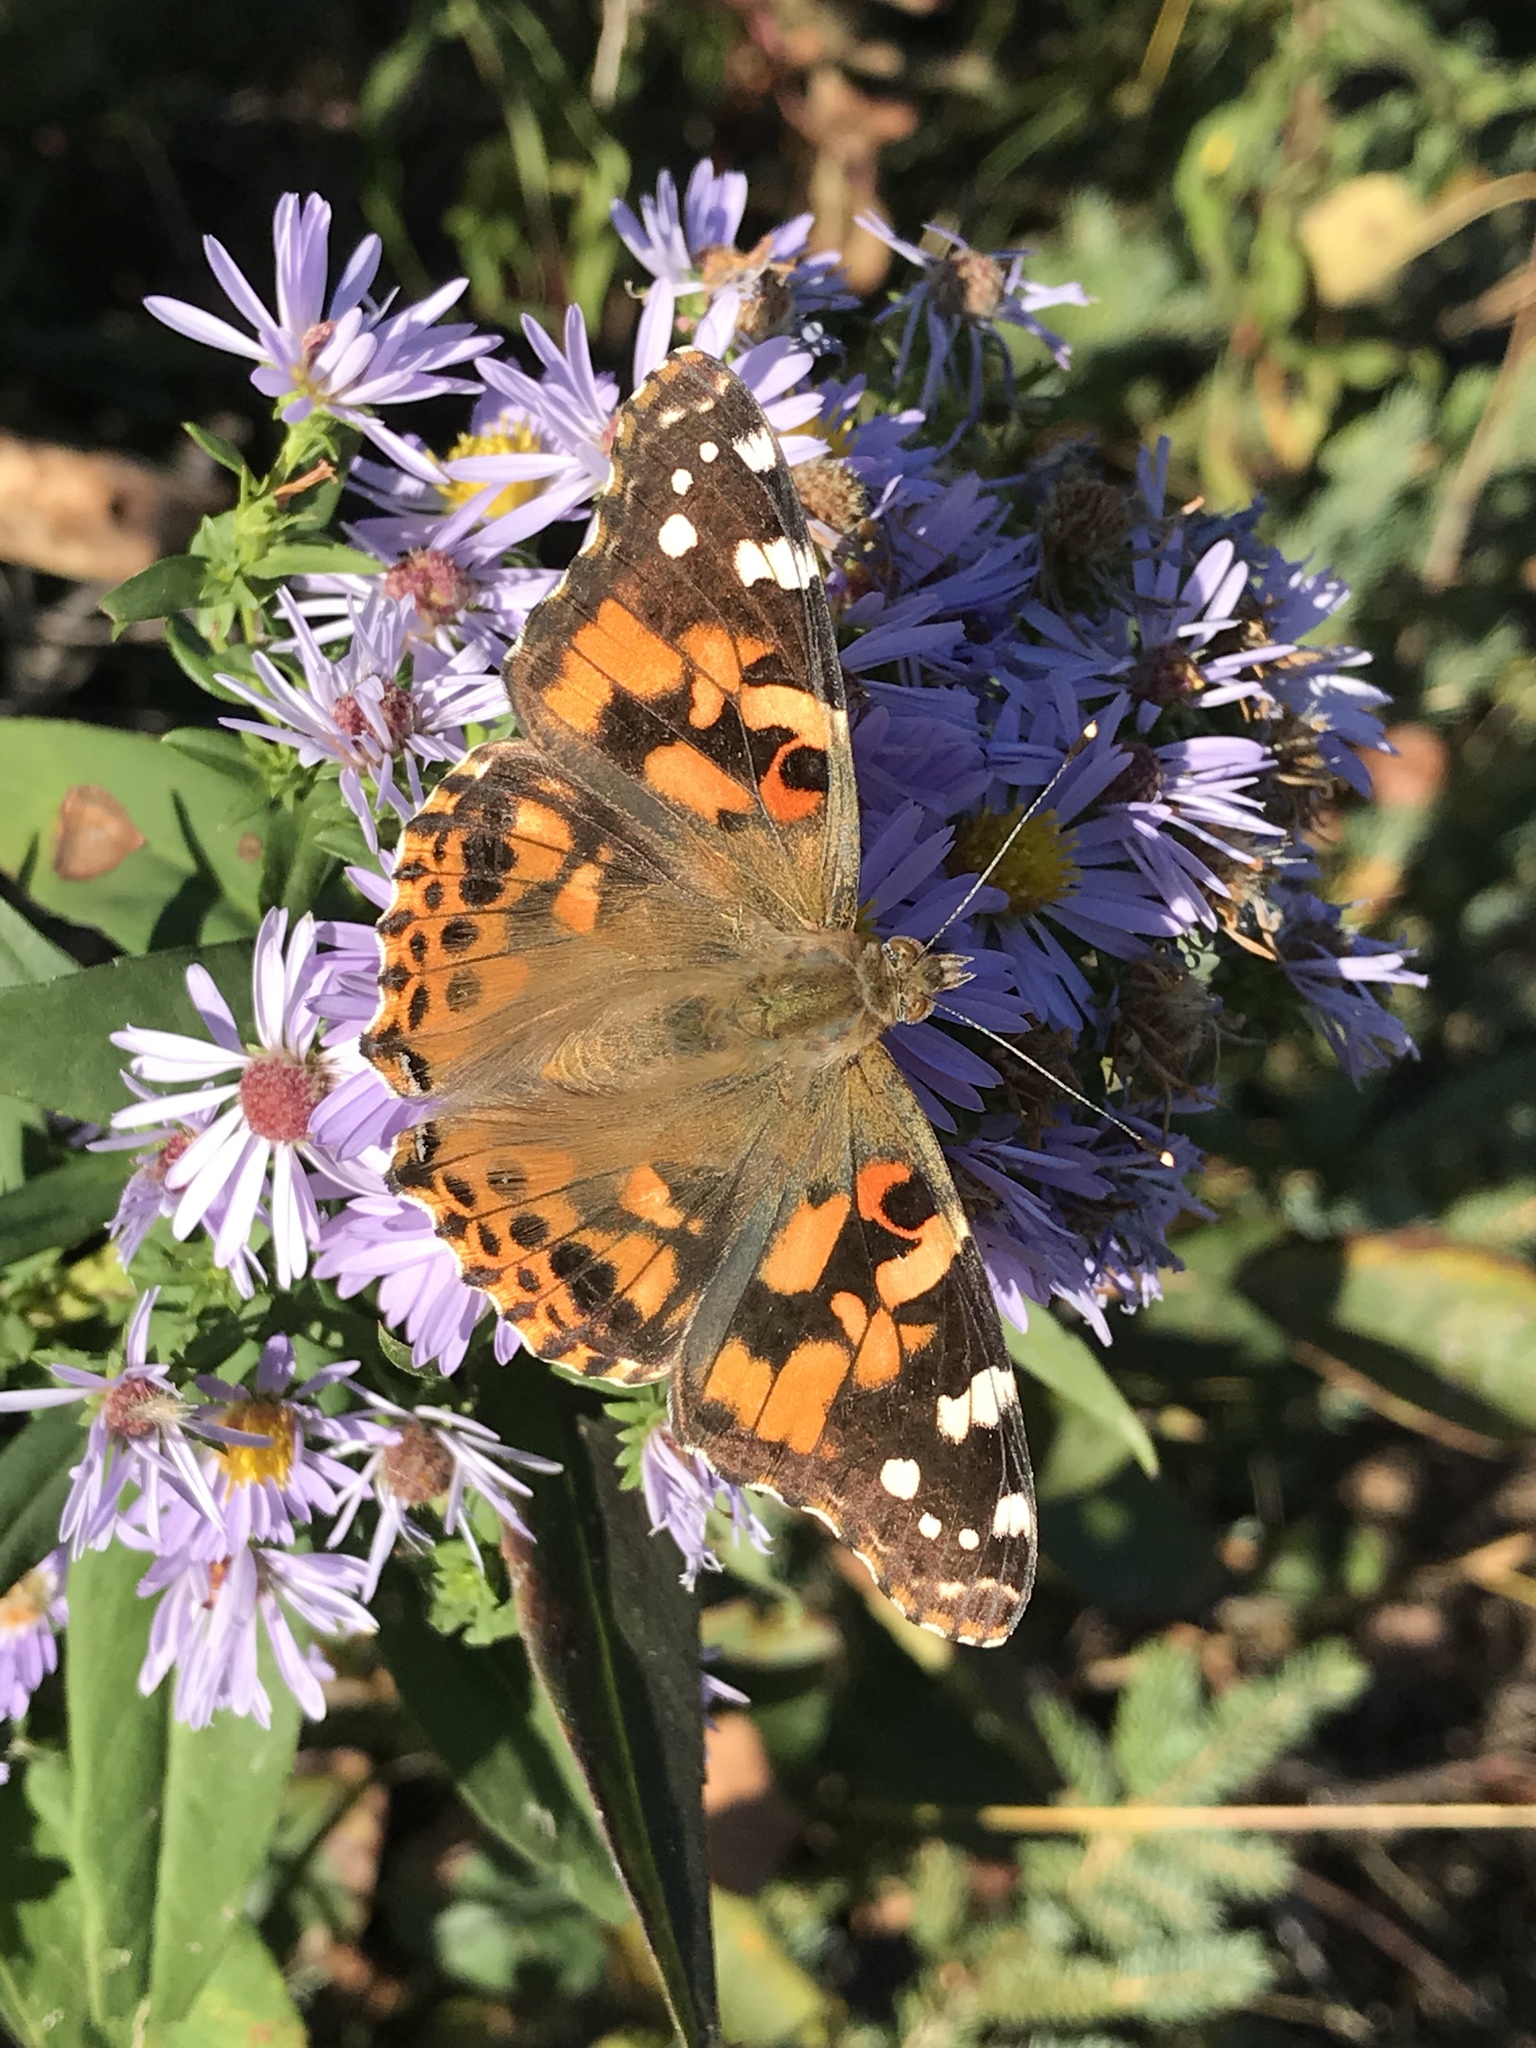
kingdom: Animalia
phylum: Arthropoda
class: Insecta
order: Lepidoptera
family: Nymphalidae
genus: Vanessa
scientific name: Vanessa cardui
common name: Painted lady
